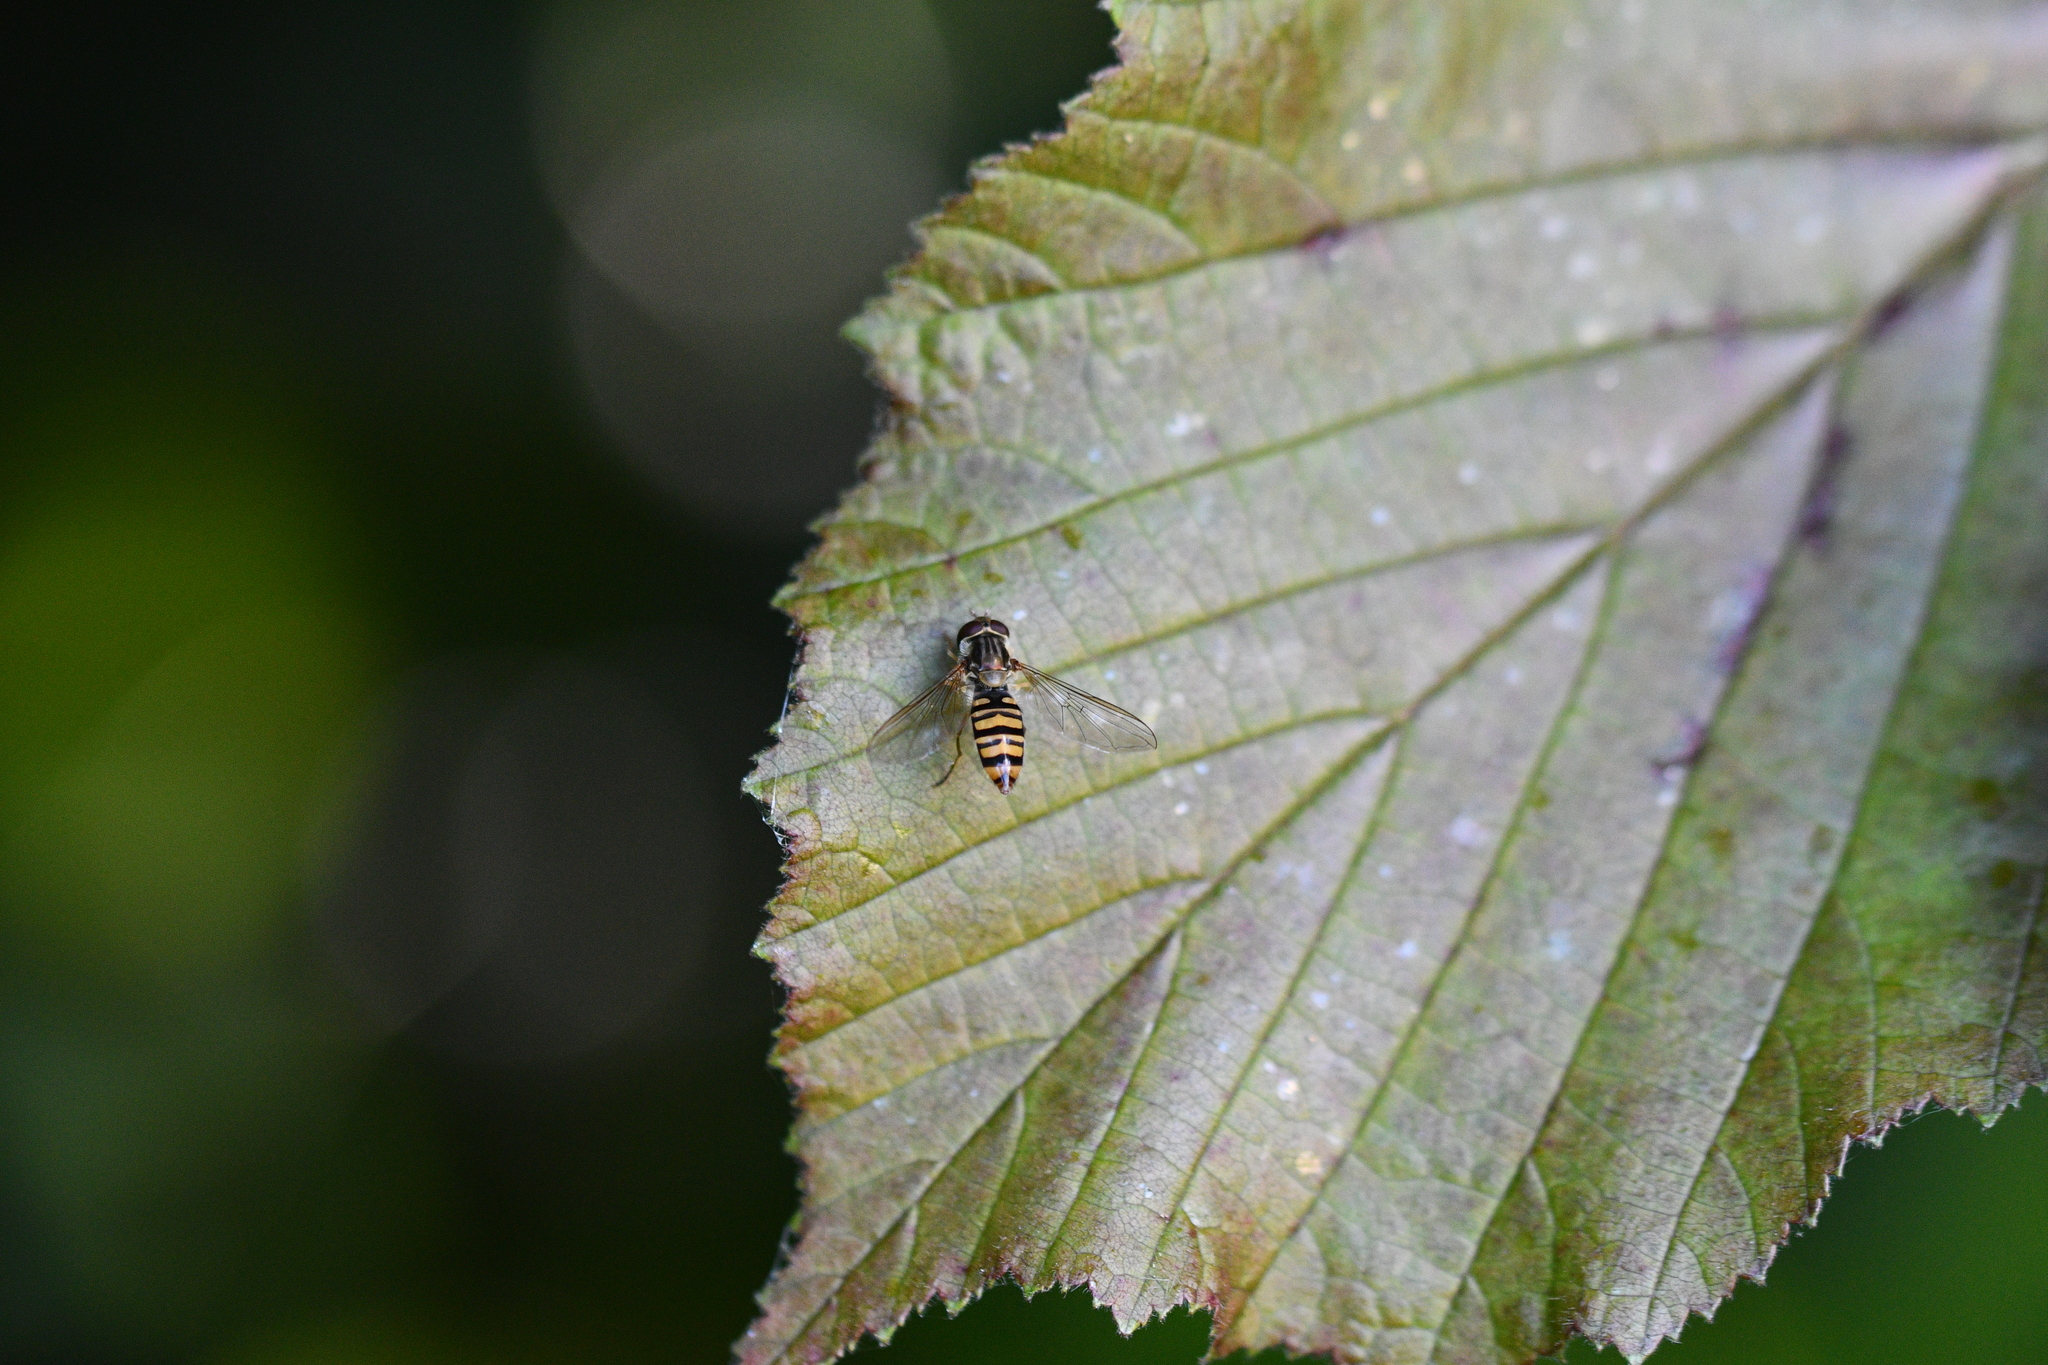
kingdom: Animalia
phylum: Arthropoda
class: Insecta
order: Diptera
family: Syrphidae
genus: Episyrphus
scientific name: Episyrphus balteatus
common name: Marmalade hoverfly
